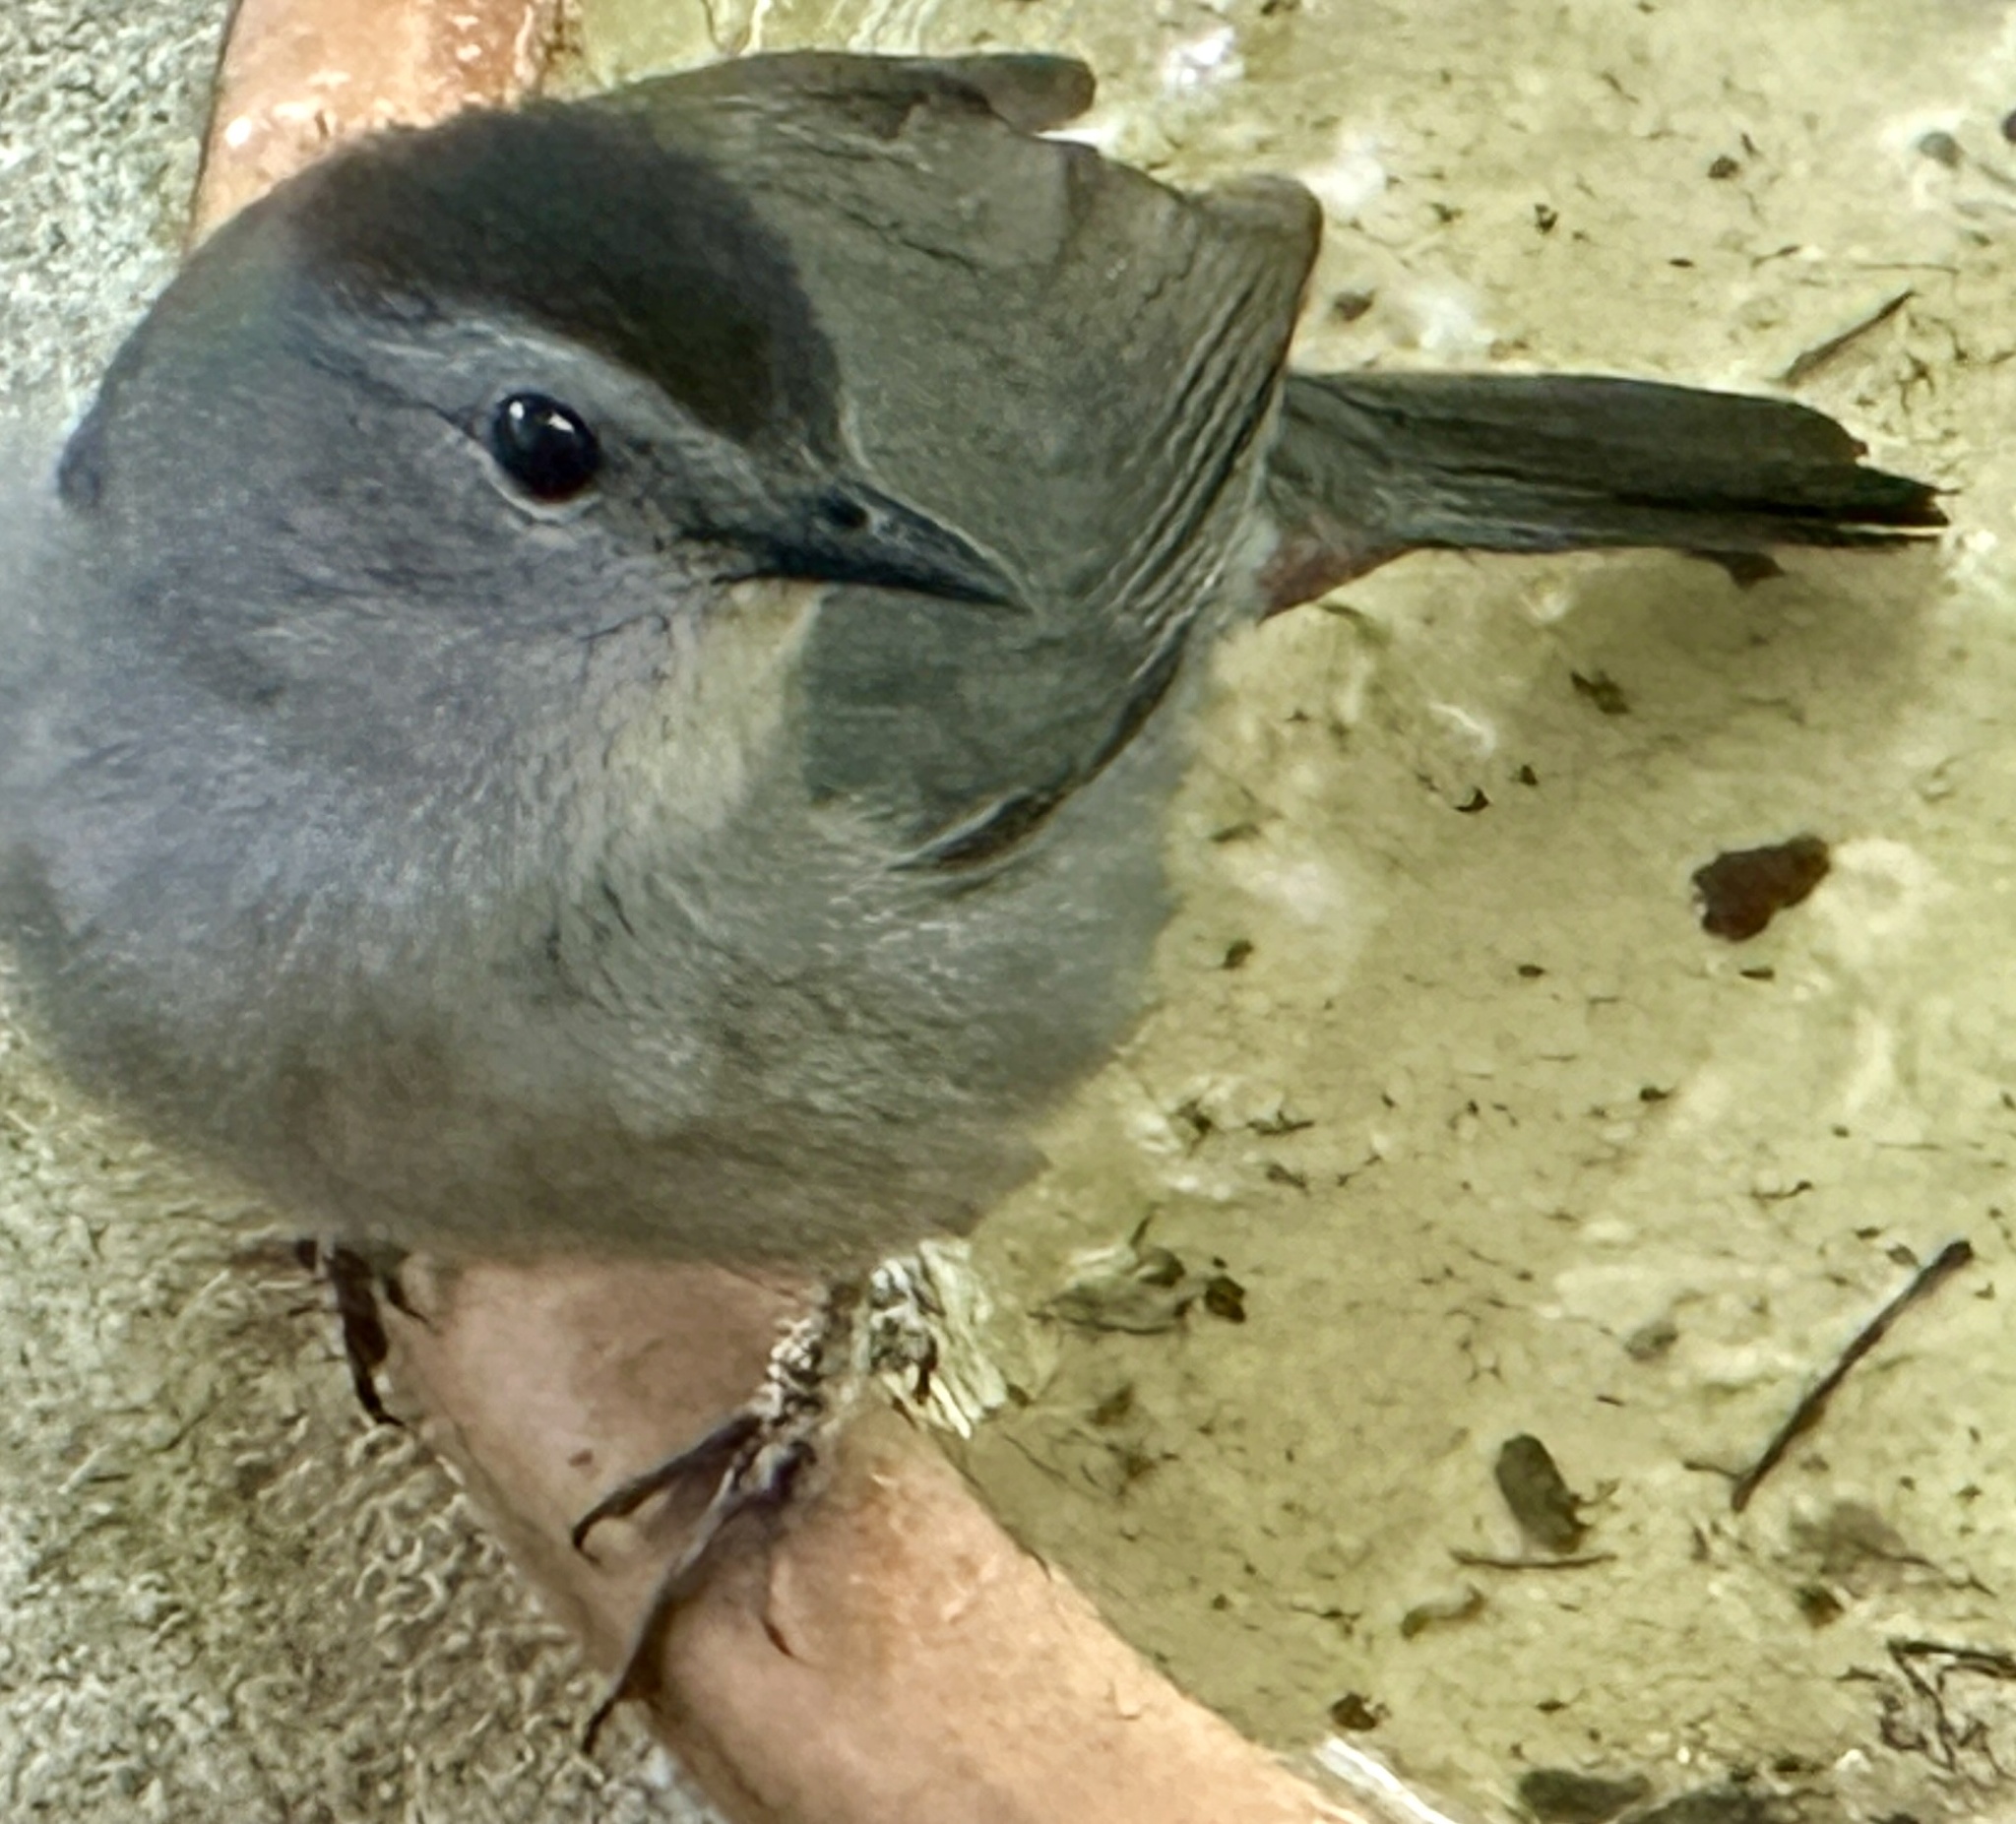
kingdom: Animalia
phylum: Chordata
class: Aves
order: Passeriformes
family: Mimidae
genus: Dumetella
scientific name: Dumetella carolinensis
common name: Gray catbird
